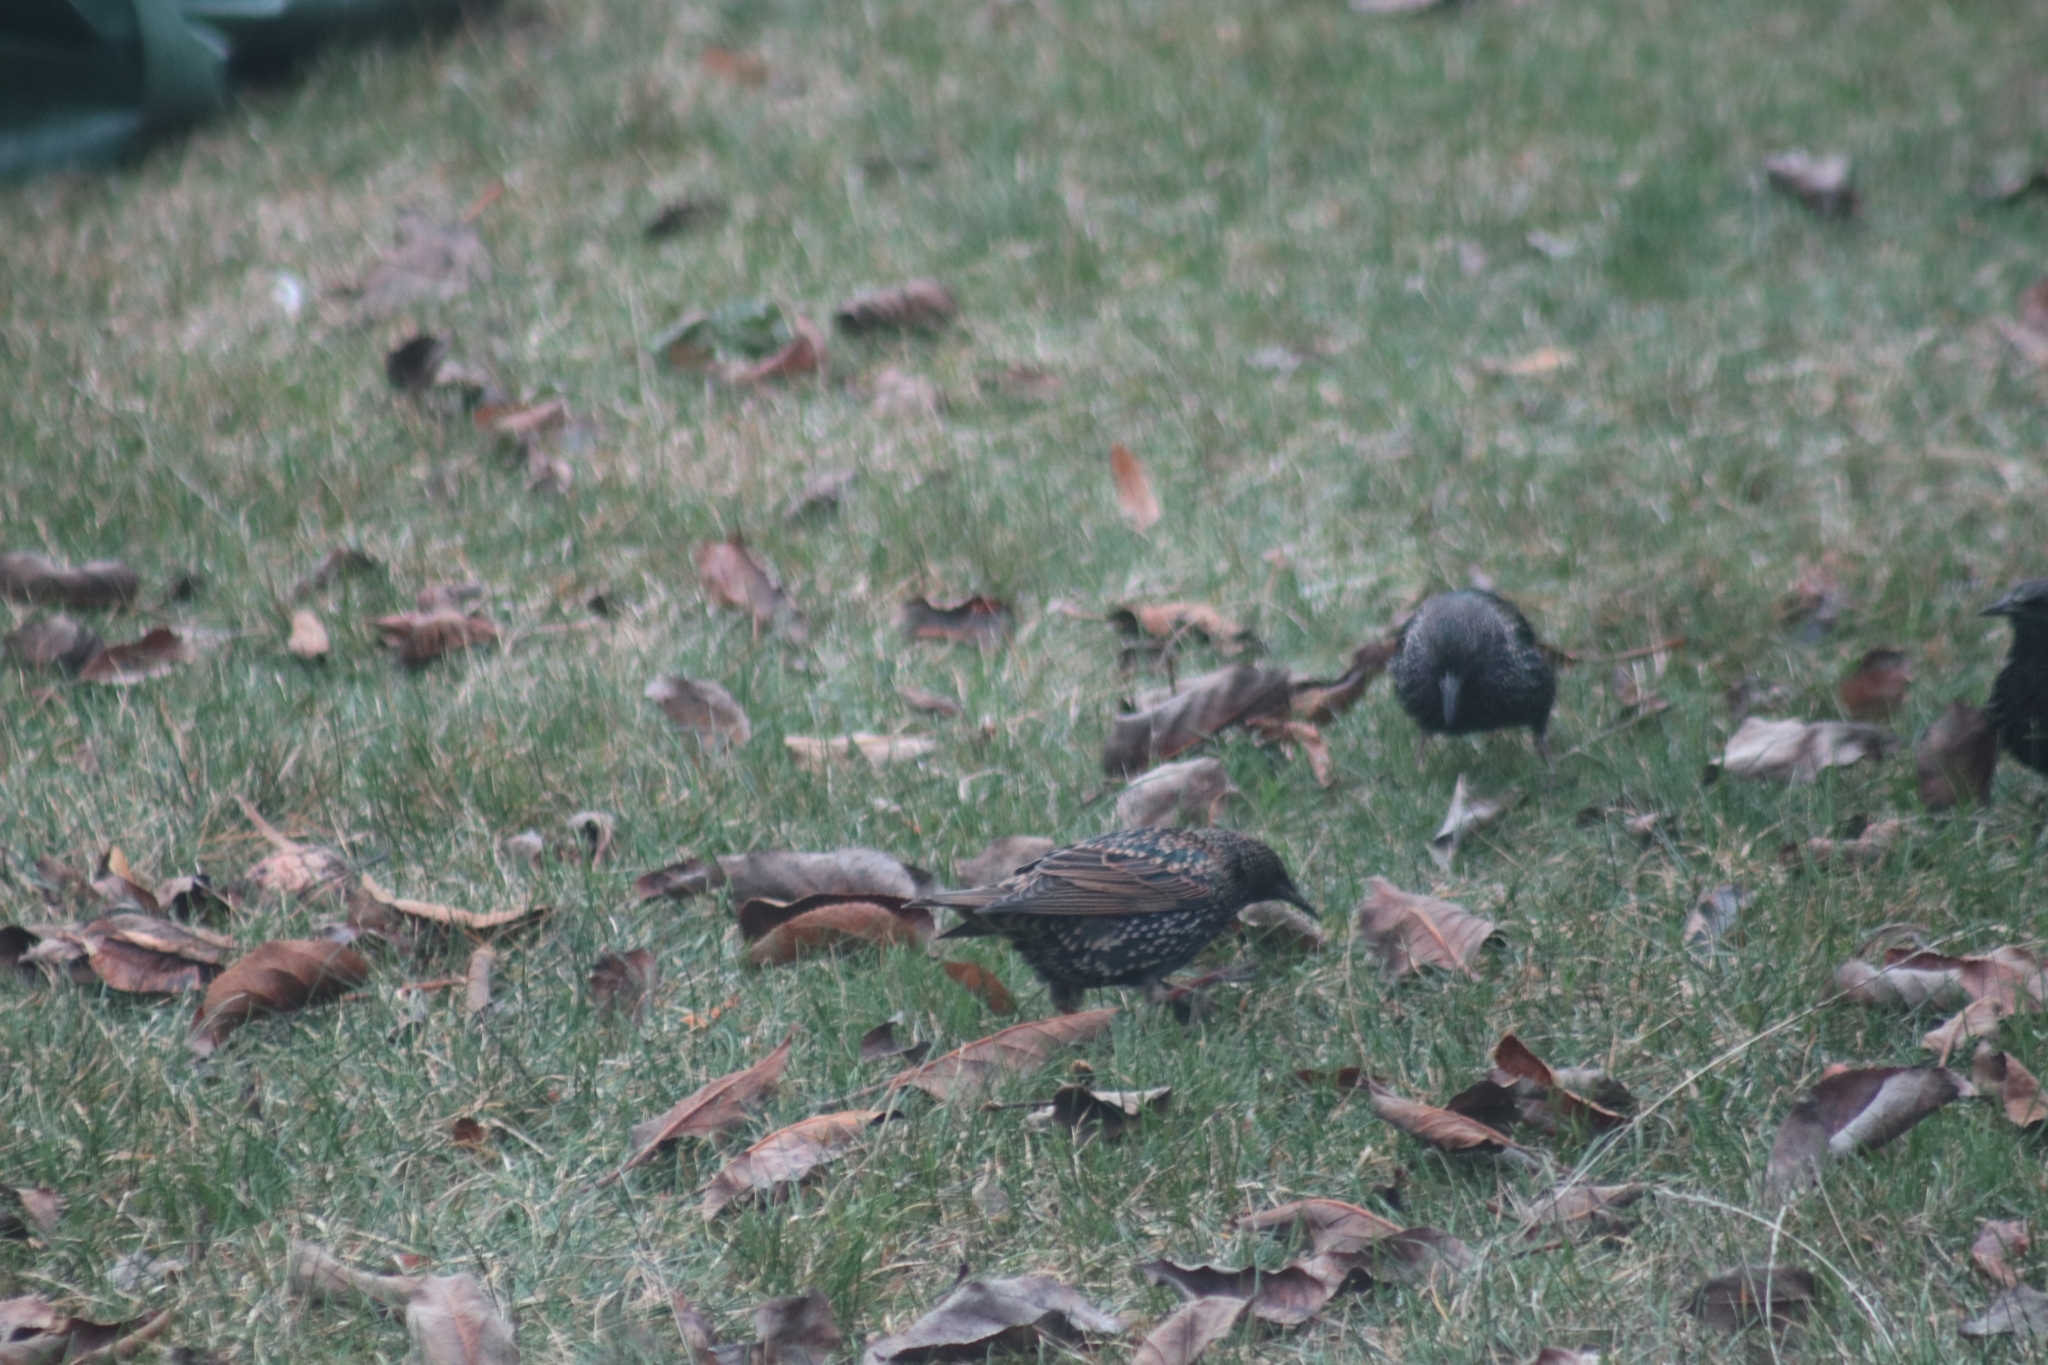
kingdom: Animalia
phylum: Chordata
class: Aves
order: Passeriformes
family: Sturnidae
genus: Sturnus
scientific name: Sturnus vulgaris
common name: Common starling
